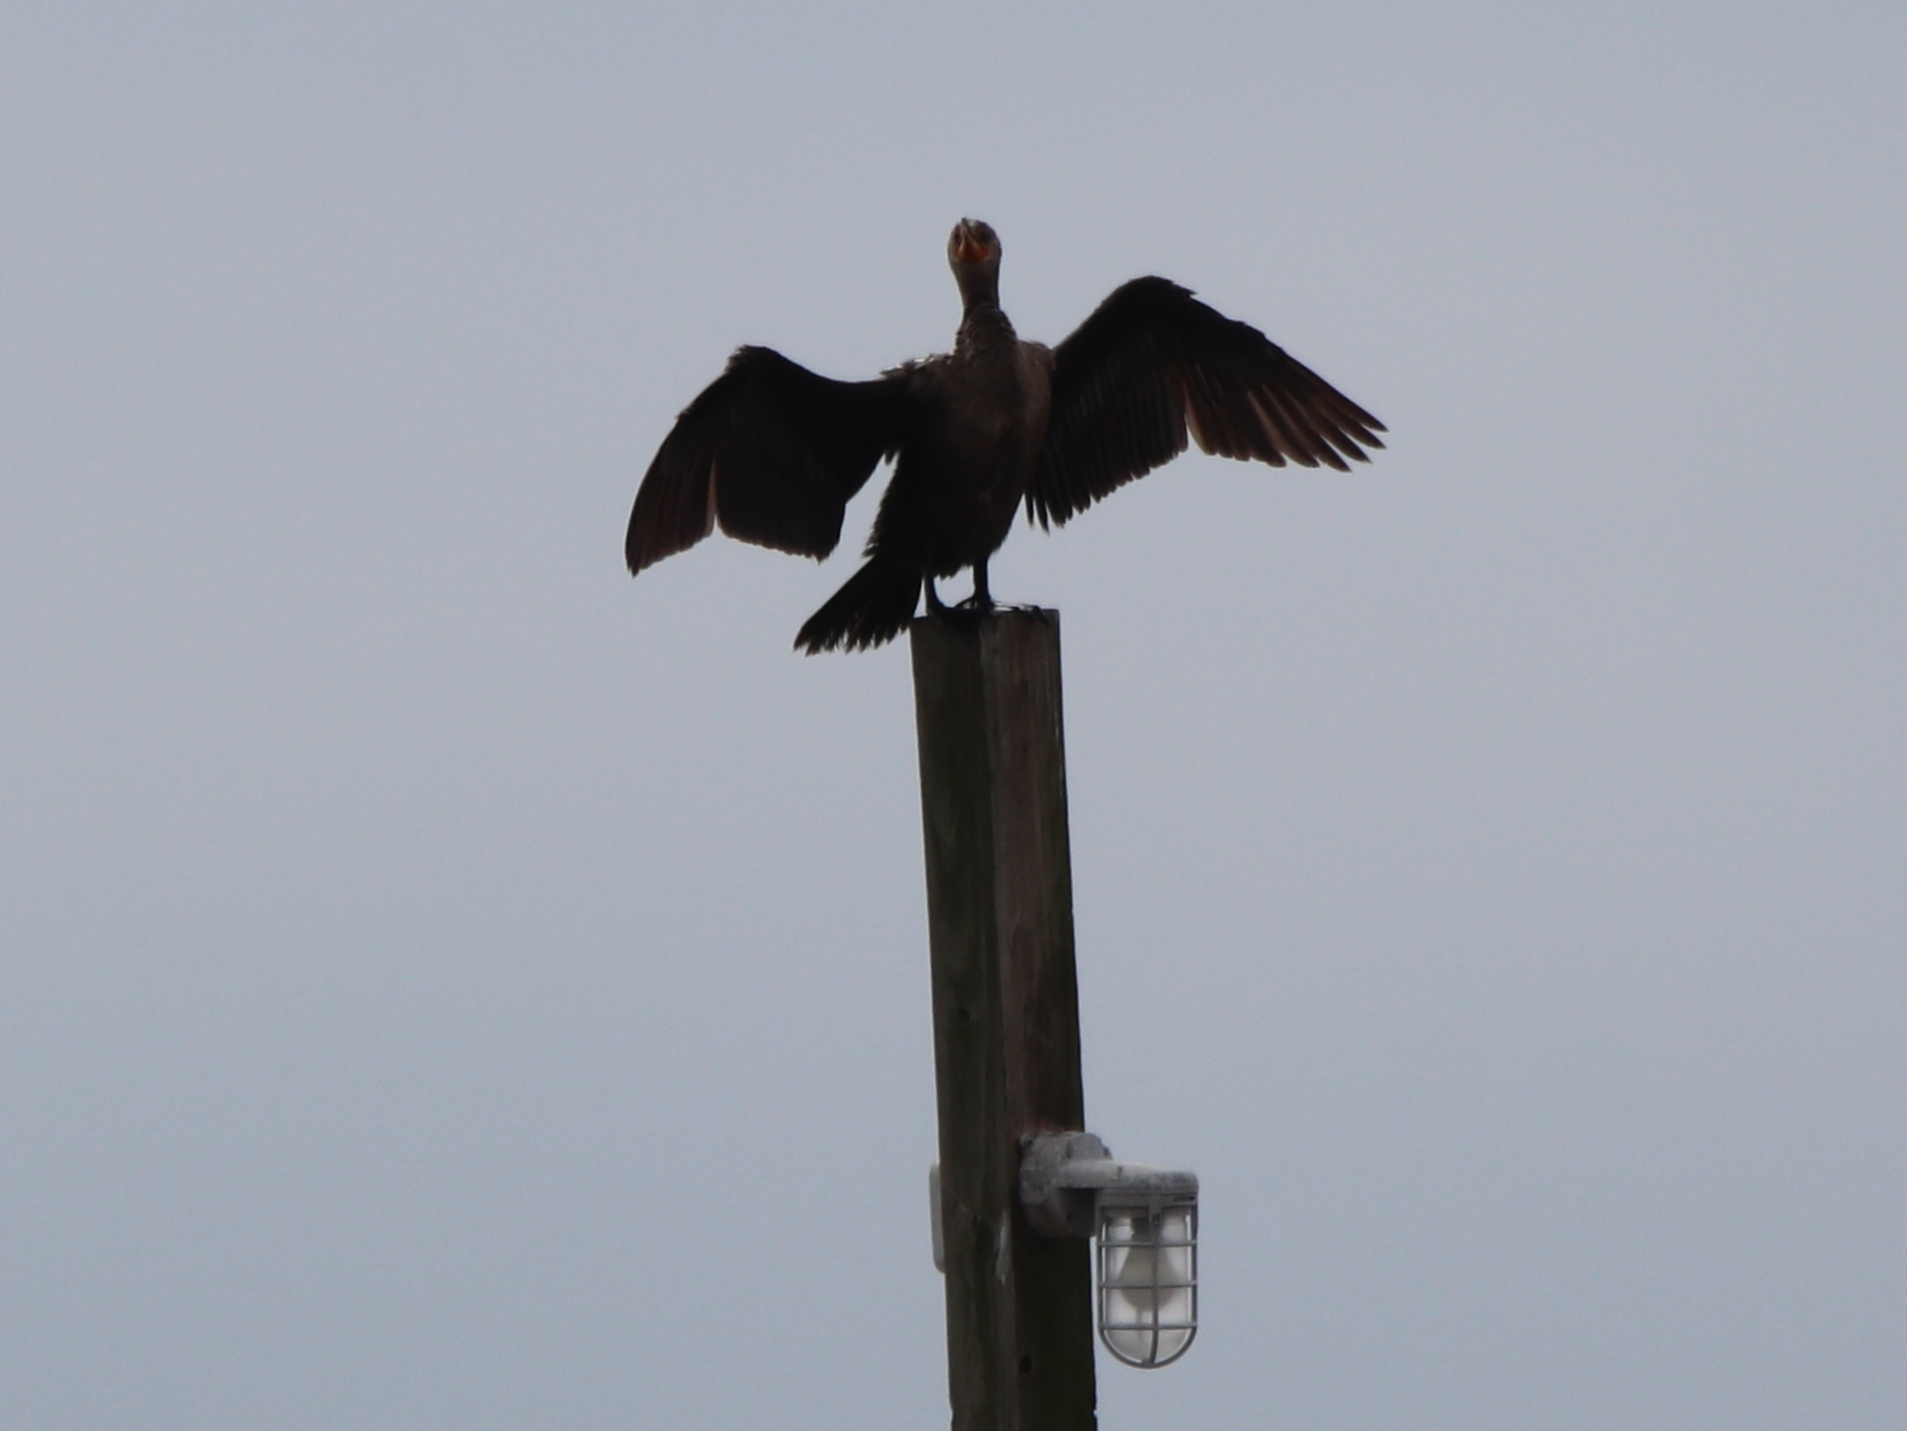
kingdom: Animalia
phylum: Chordata
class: Aves
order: Suliformes
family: Phalacrocoracidae
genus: Phalacrocorax
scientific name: Phalacrocorax auritus
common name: Double-crested cormorant
